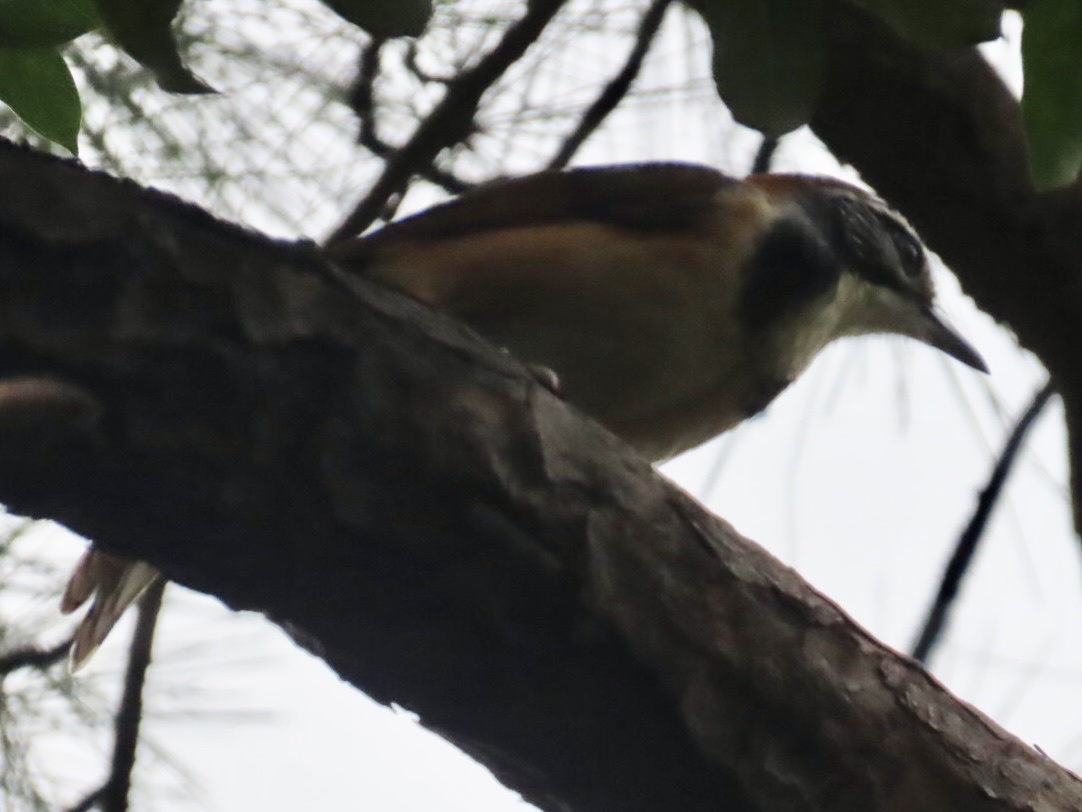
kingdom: Animalia
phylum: Chordata
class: Aves
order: Passeriformes
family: Leiothrichidae
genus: Garrulax
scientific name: Garrulax pectoralis
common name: Greater necklaced laughingthrush
